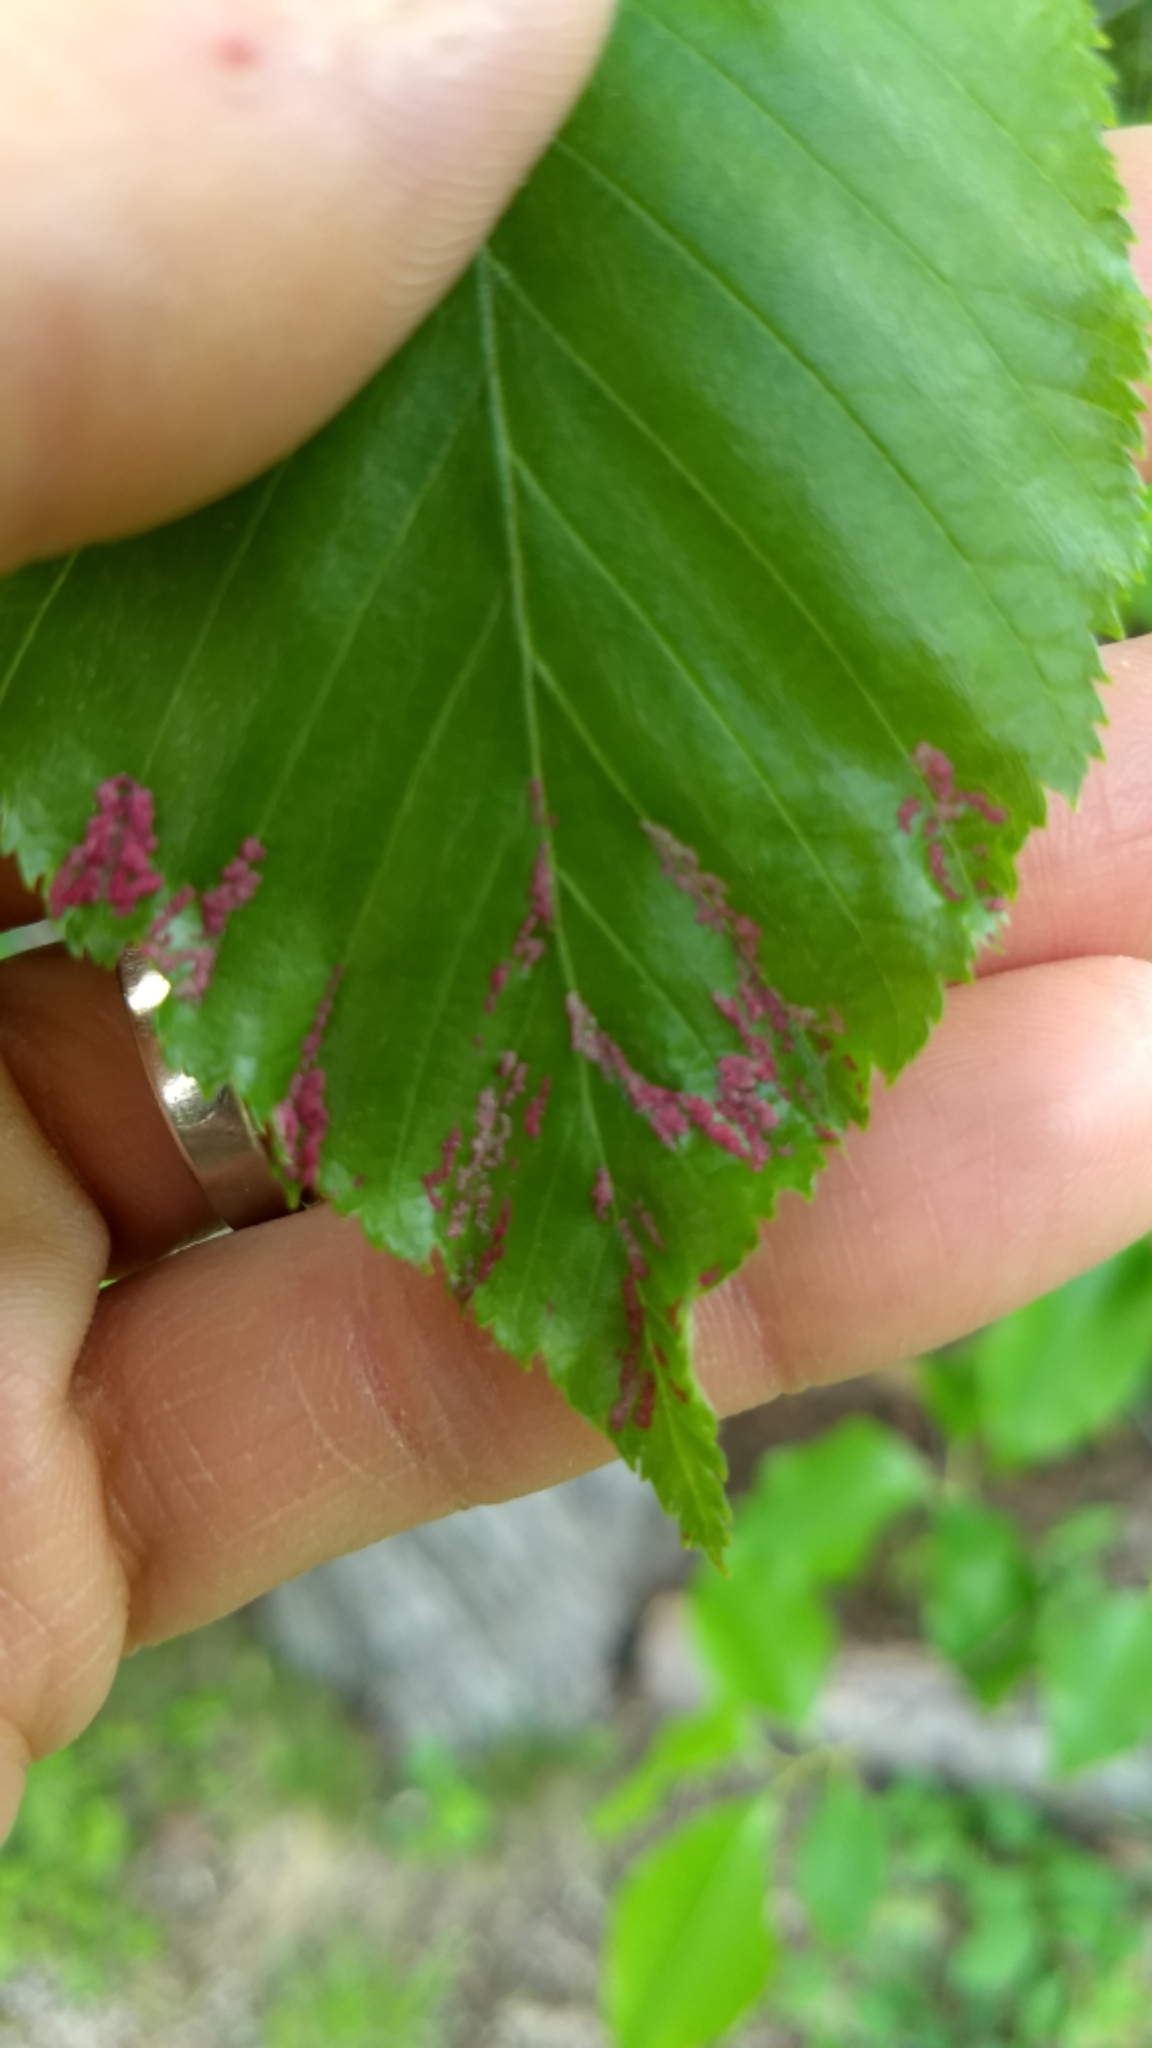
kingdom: Animalia
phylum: Arthropoda
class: Arachnida
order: Trombidiformes
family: Eriophyidae
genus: Acalitus
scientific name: Acalitus longisetosus
